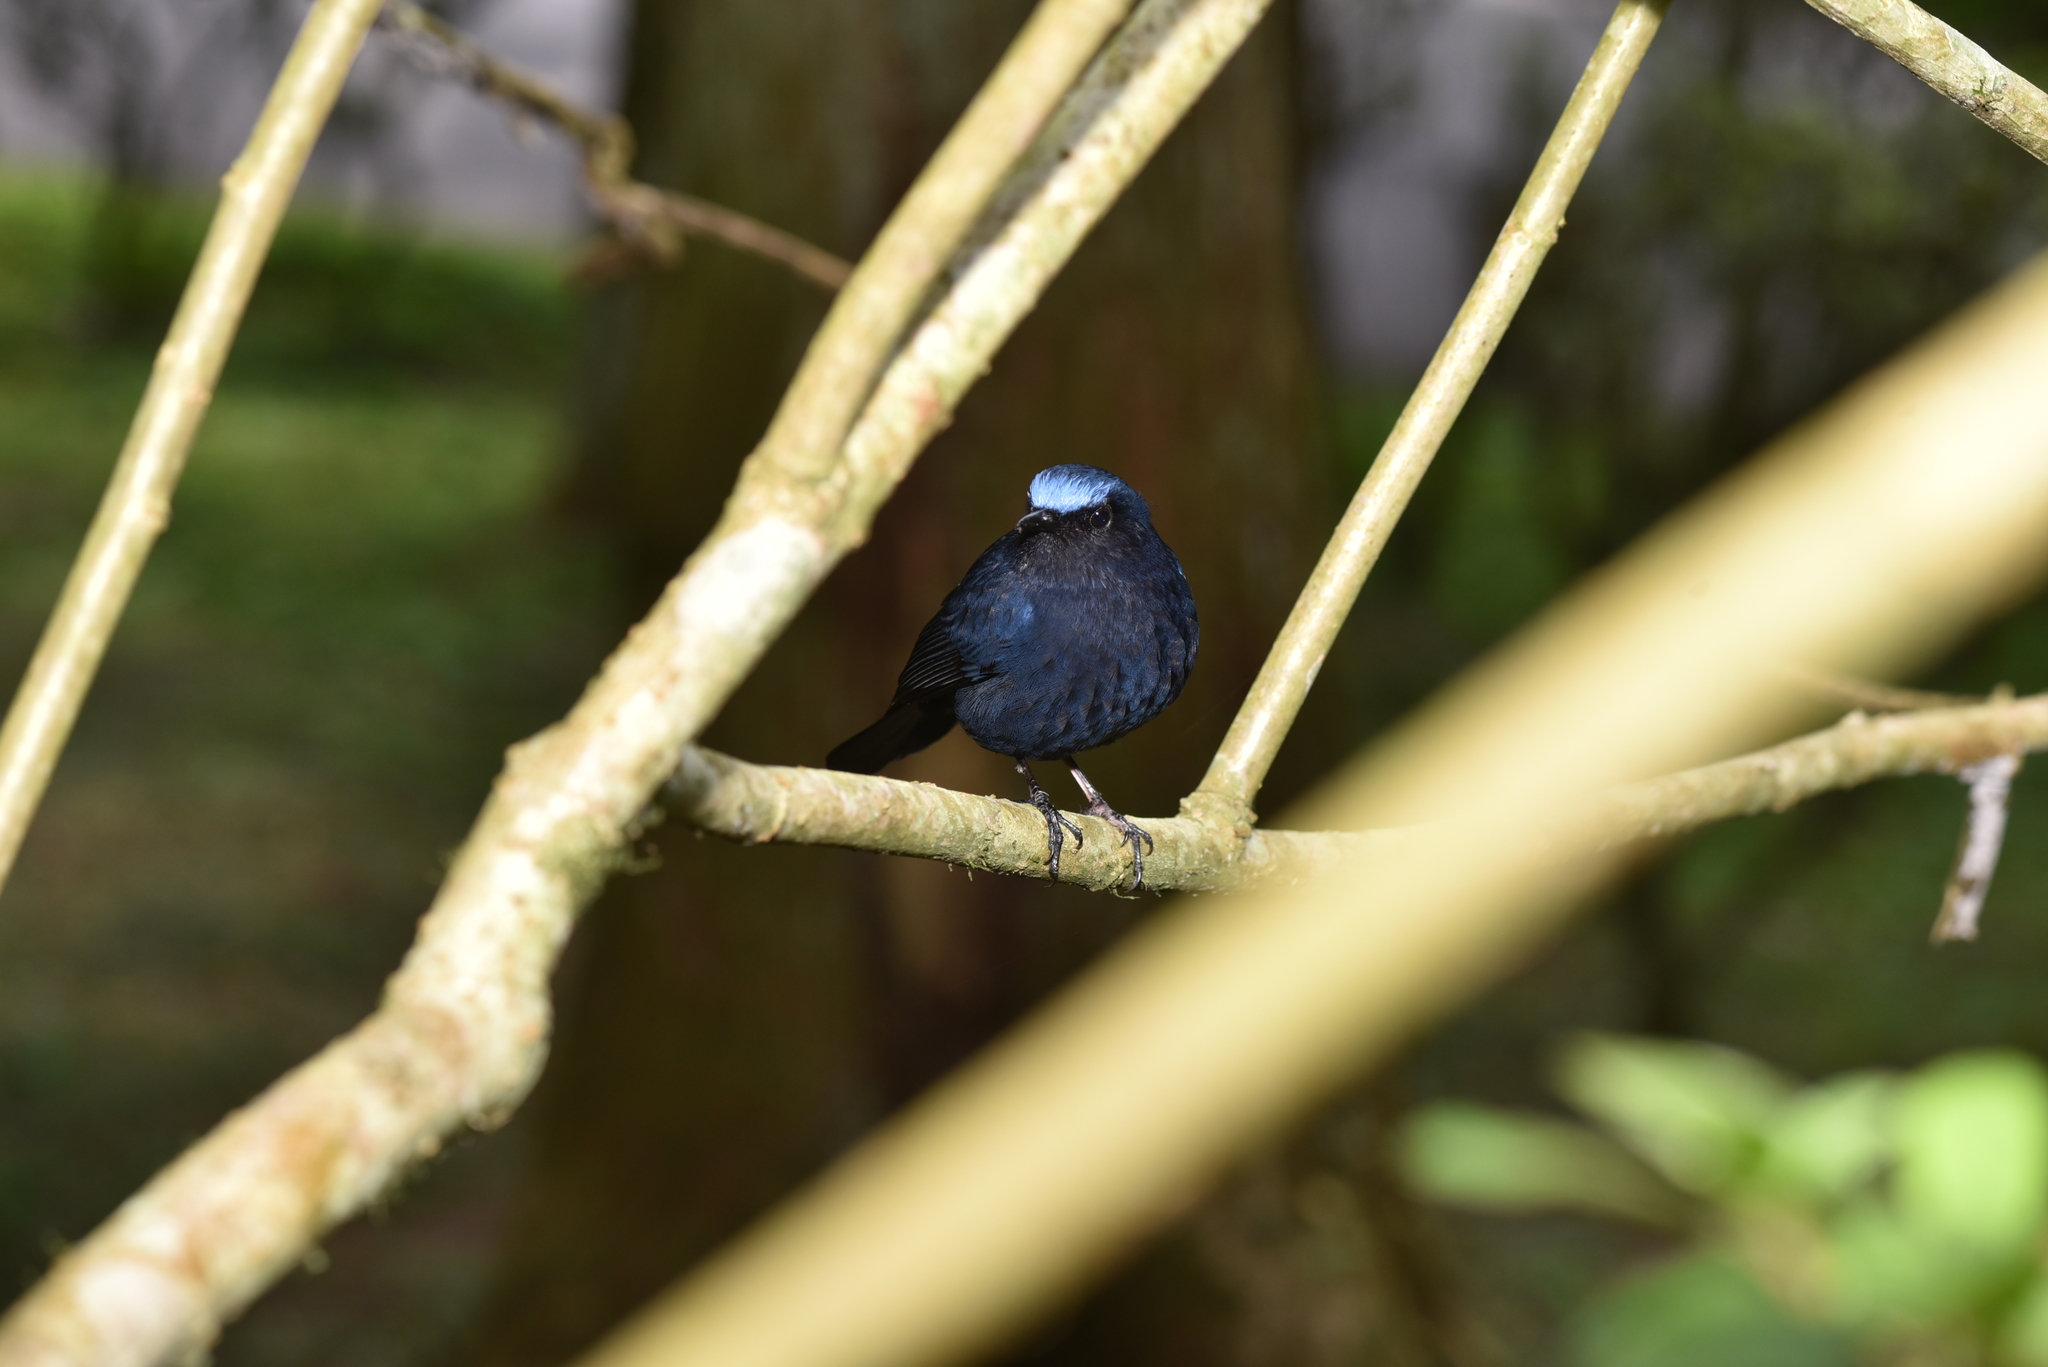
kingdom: Animalia
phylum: Chordata
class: Aves
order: Passeriformes
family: Muscicapidae
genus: Myiomela
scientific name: Myiomela leucura
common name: White-tailed robin
